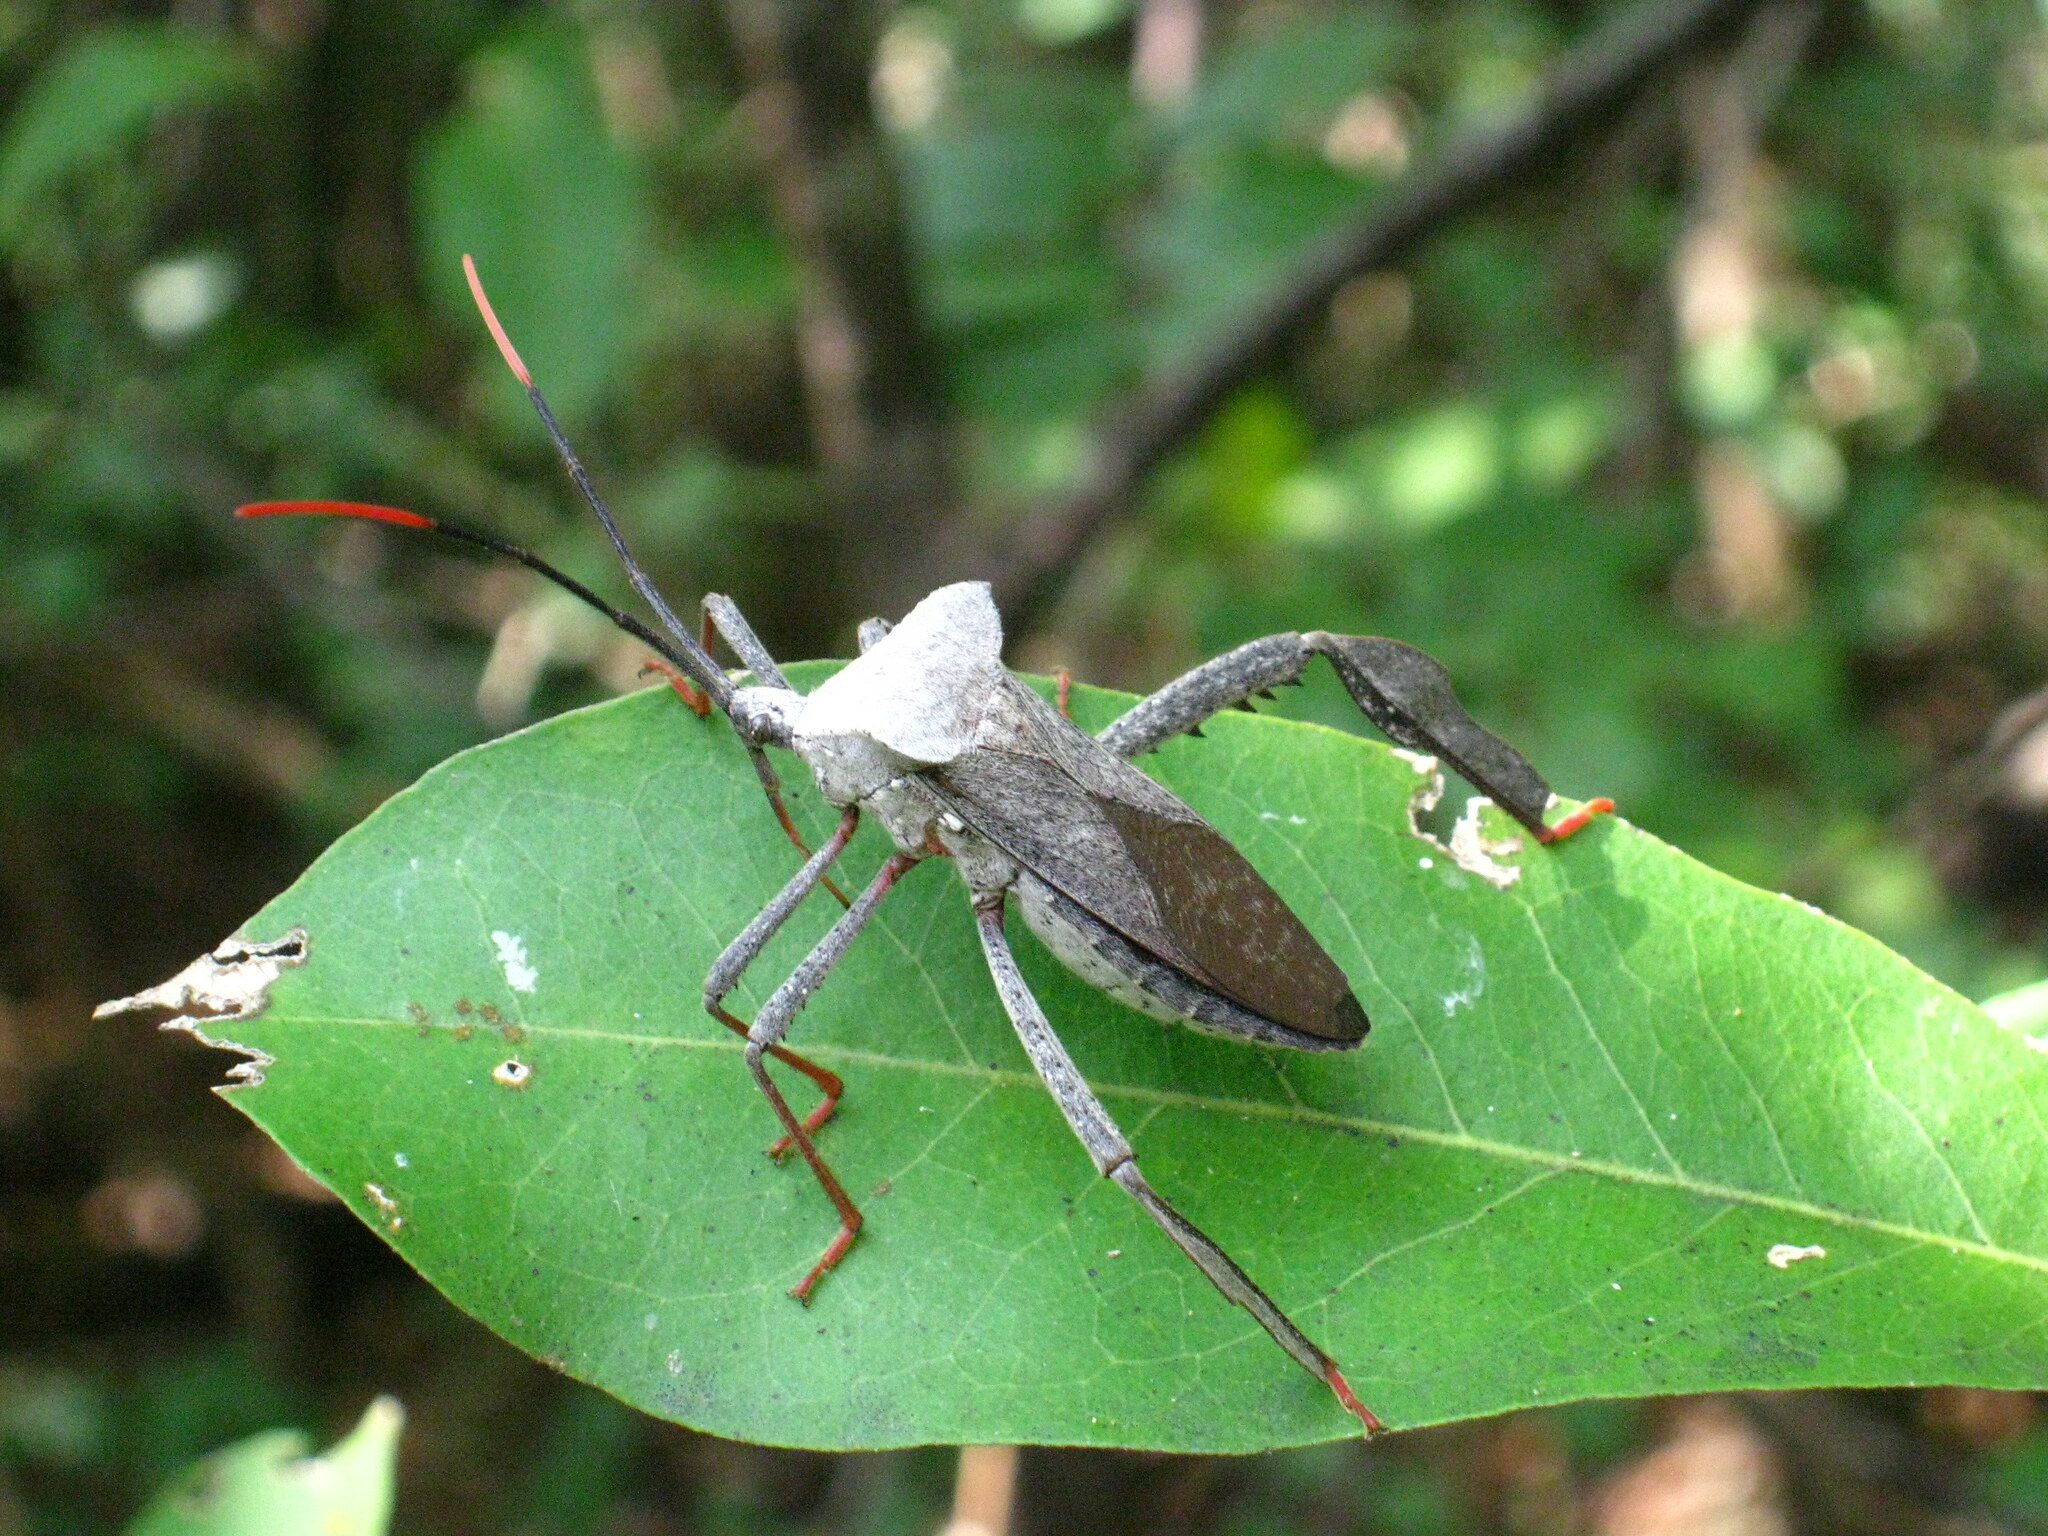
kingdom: Animalia
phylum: Arthropoda
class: Insecta
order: Hemiptera
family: Coreidae
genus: Acanthocephala
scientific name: Acanthocephala alata
